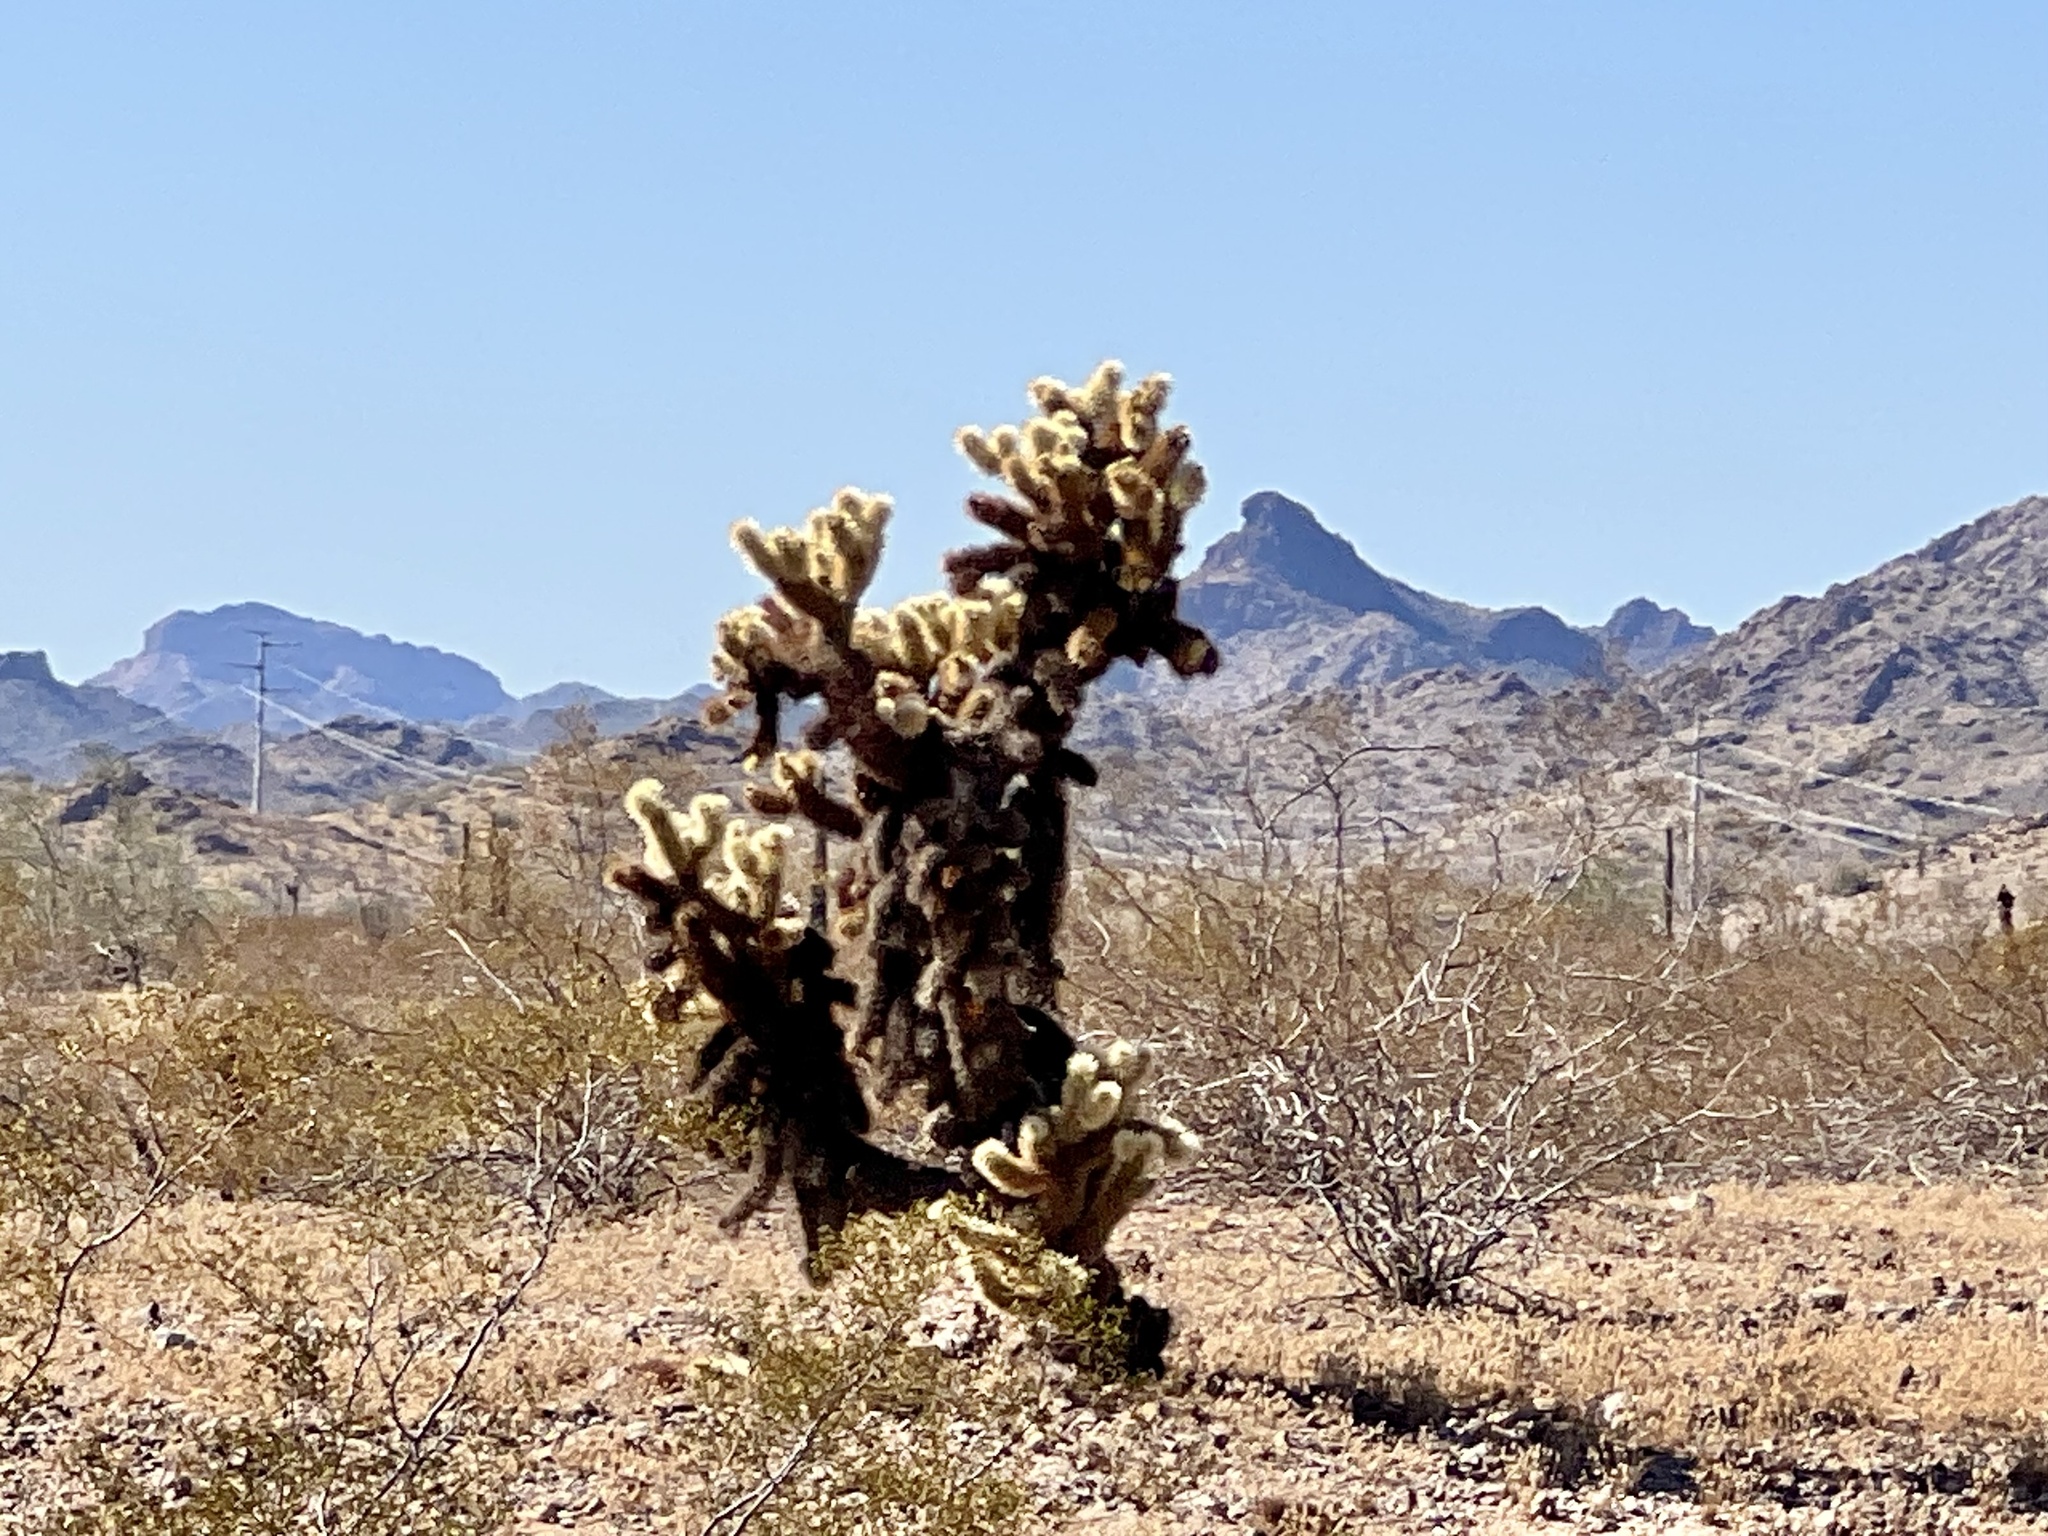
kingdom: Plantae
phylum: Tracheophyta
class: Magnoliopsida
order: Caryophyllales
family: Cactaceae
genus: Cylindropuntia
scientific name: Cylindropuntia fosbergii
